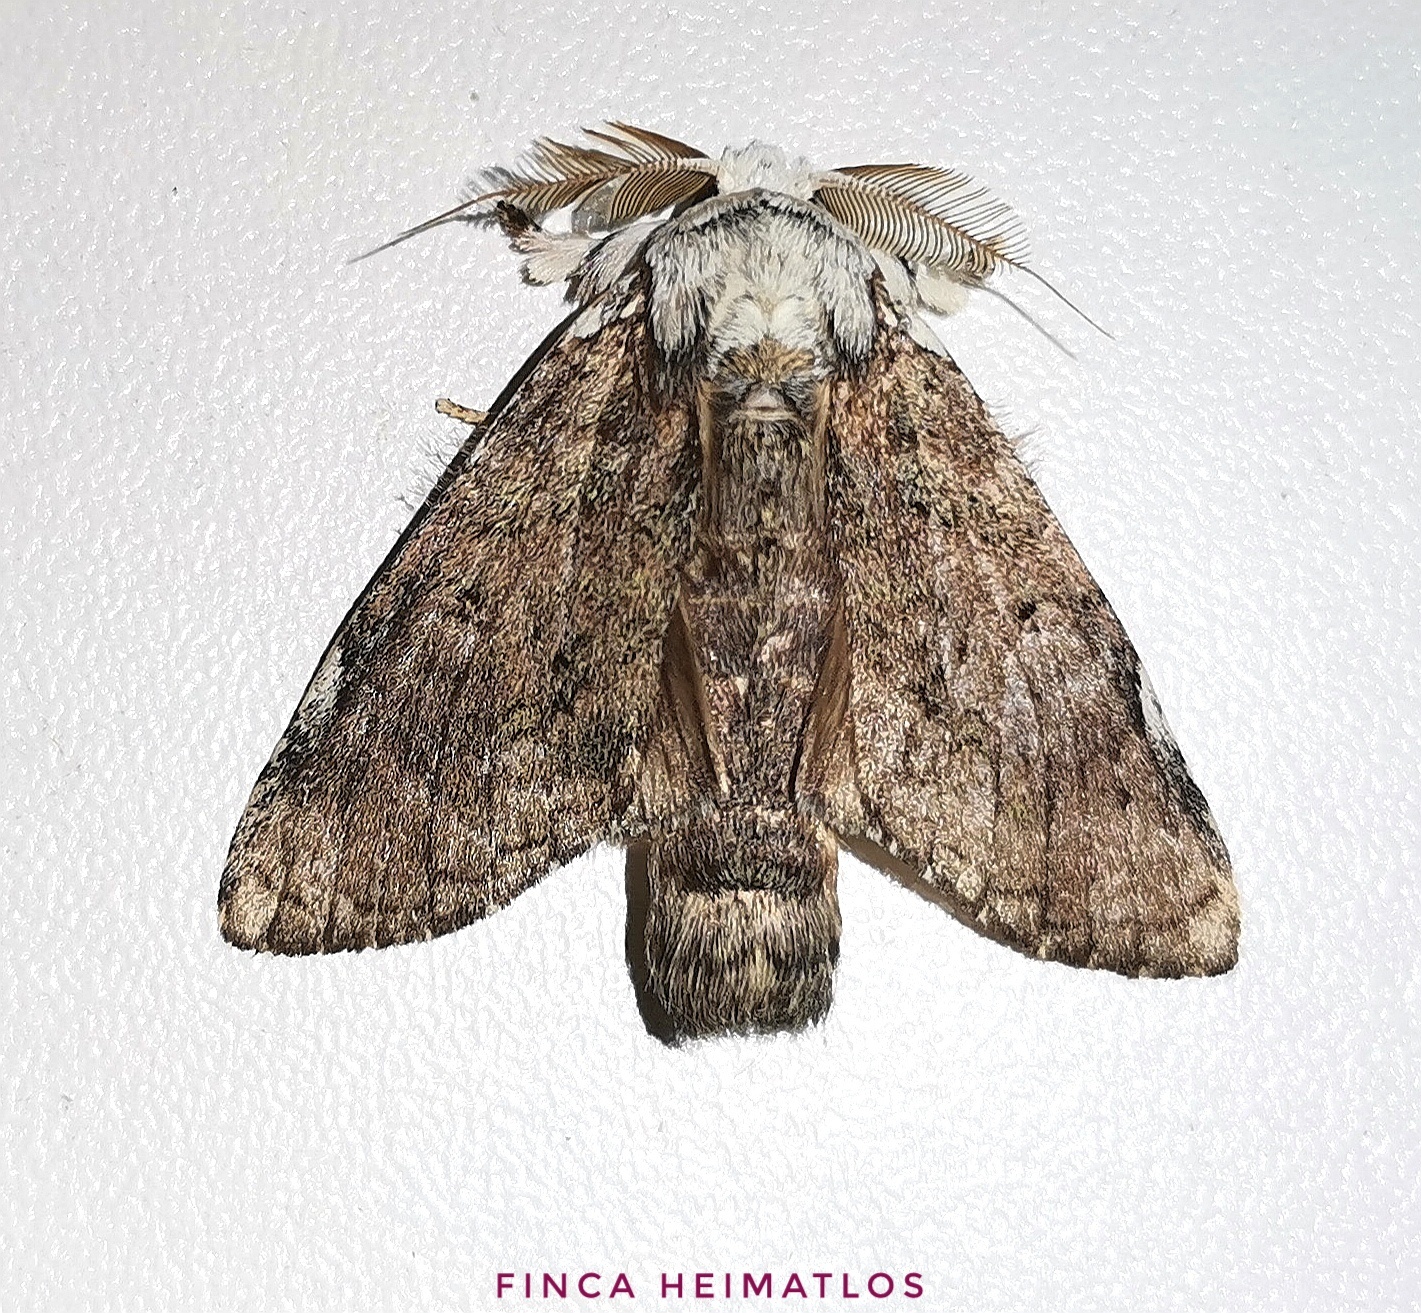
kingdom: Animalia
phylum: Arthropoda
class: Insecta
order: Lepidoptera
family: Notodontidae
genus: Farigia
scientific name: Farigia pallida
